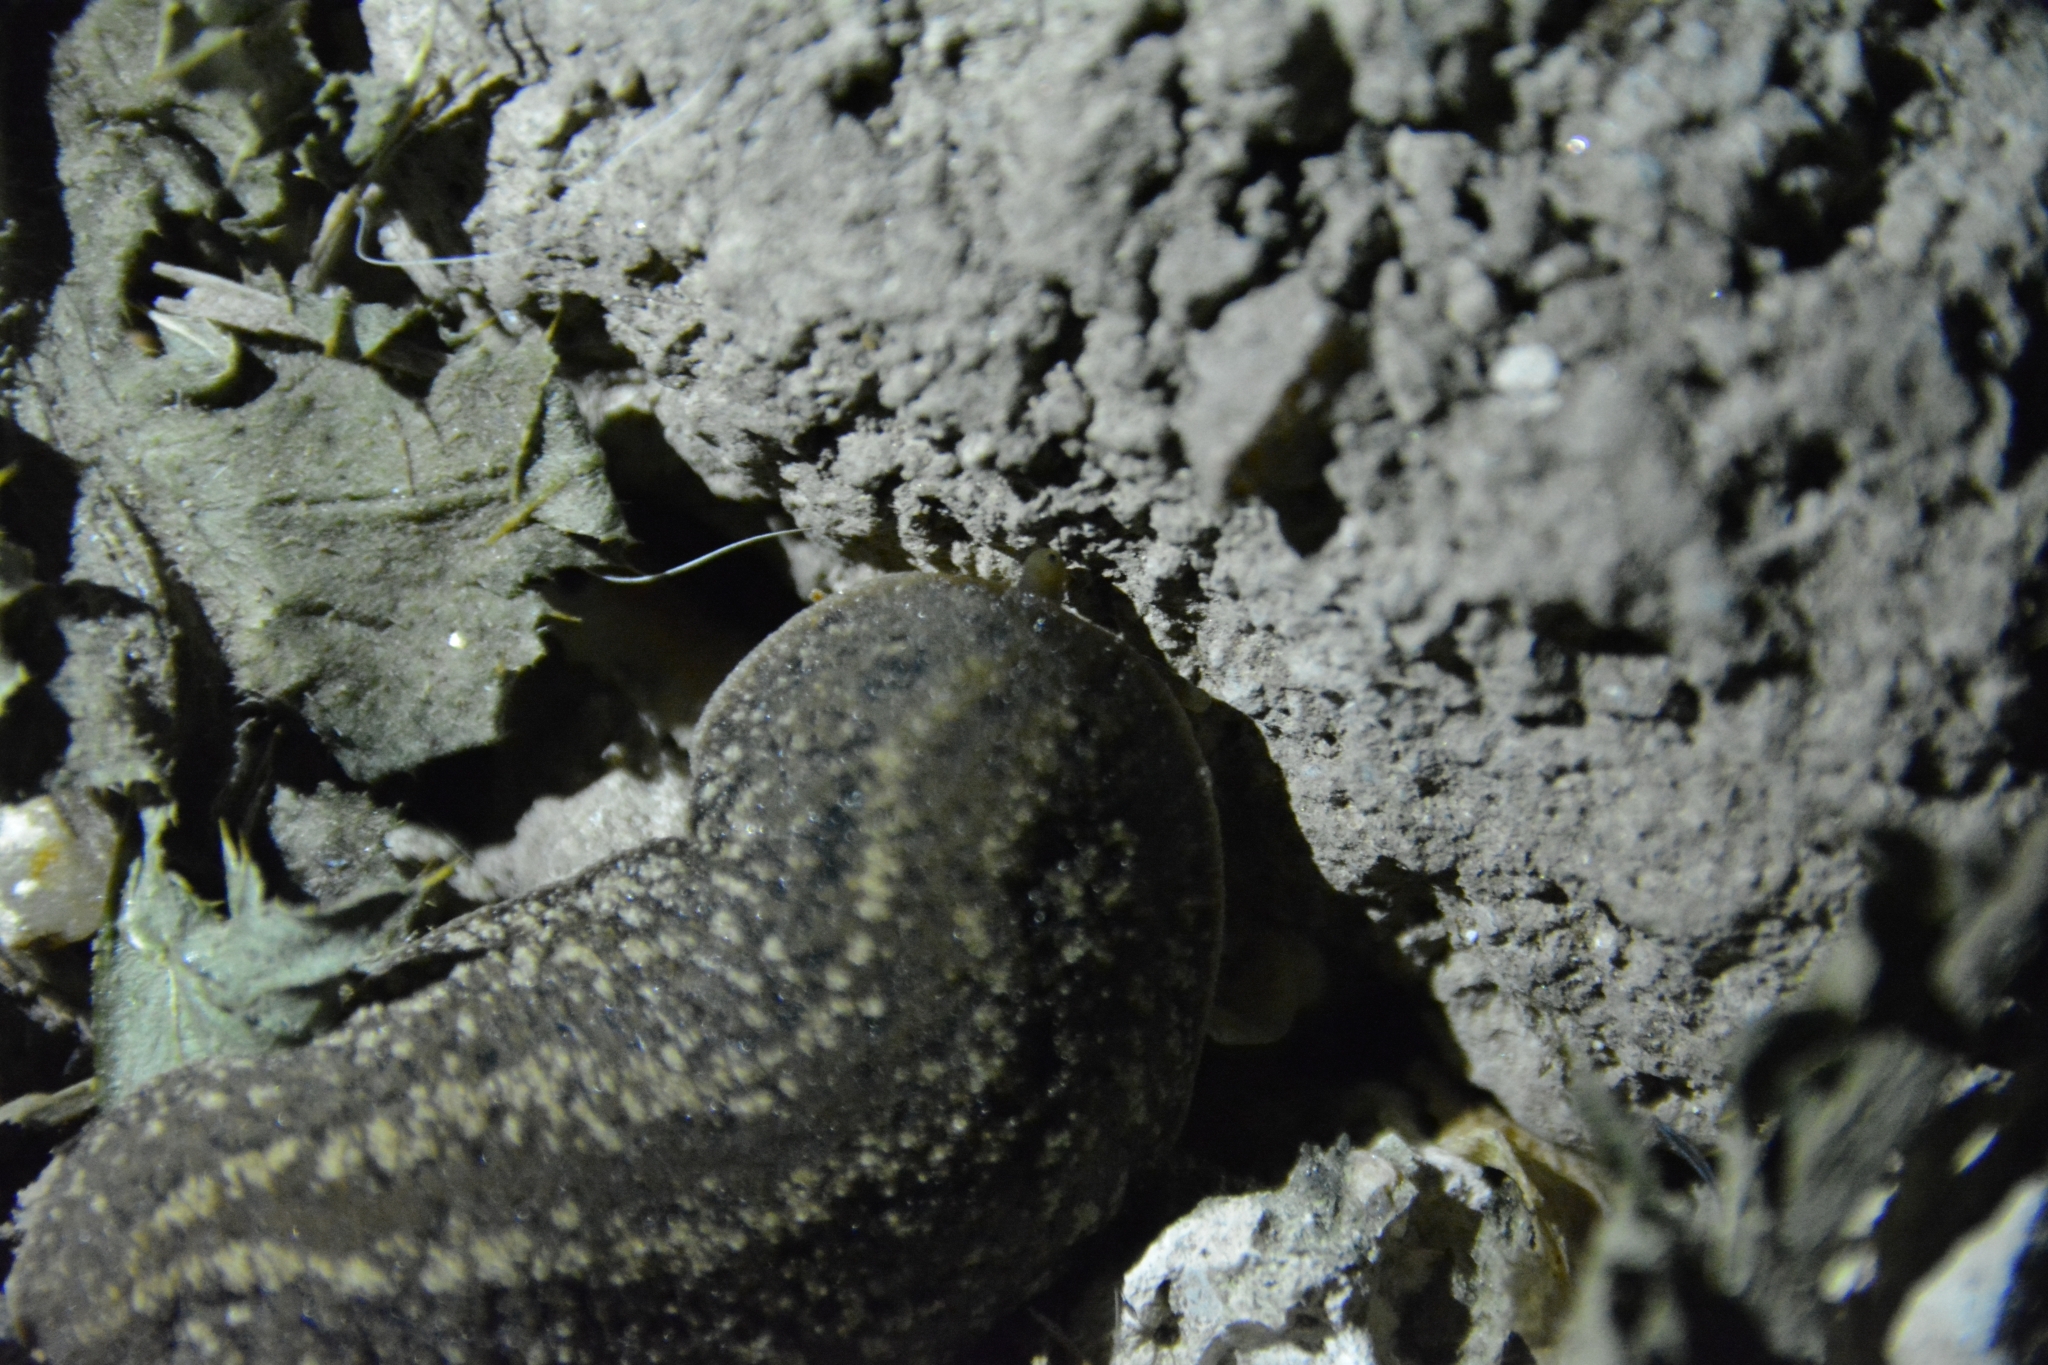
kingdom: Animalia
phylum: Mollusca
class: Gastropoda
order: Systellommatophora
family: Veronicellidae
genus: Phyllocaulis
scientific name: Phyllocaulis soleiformis
